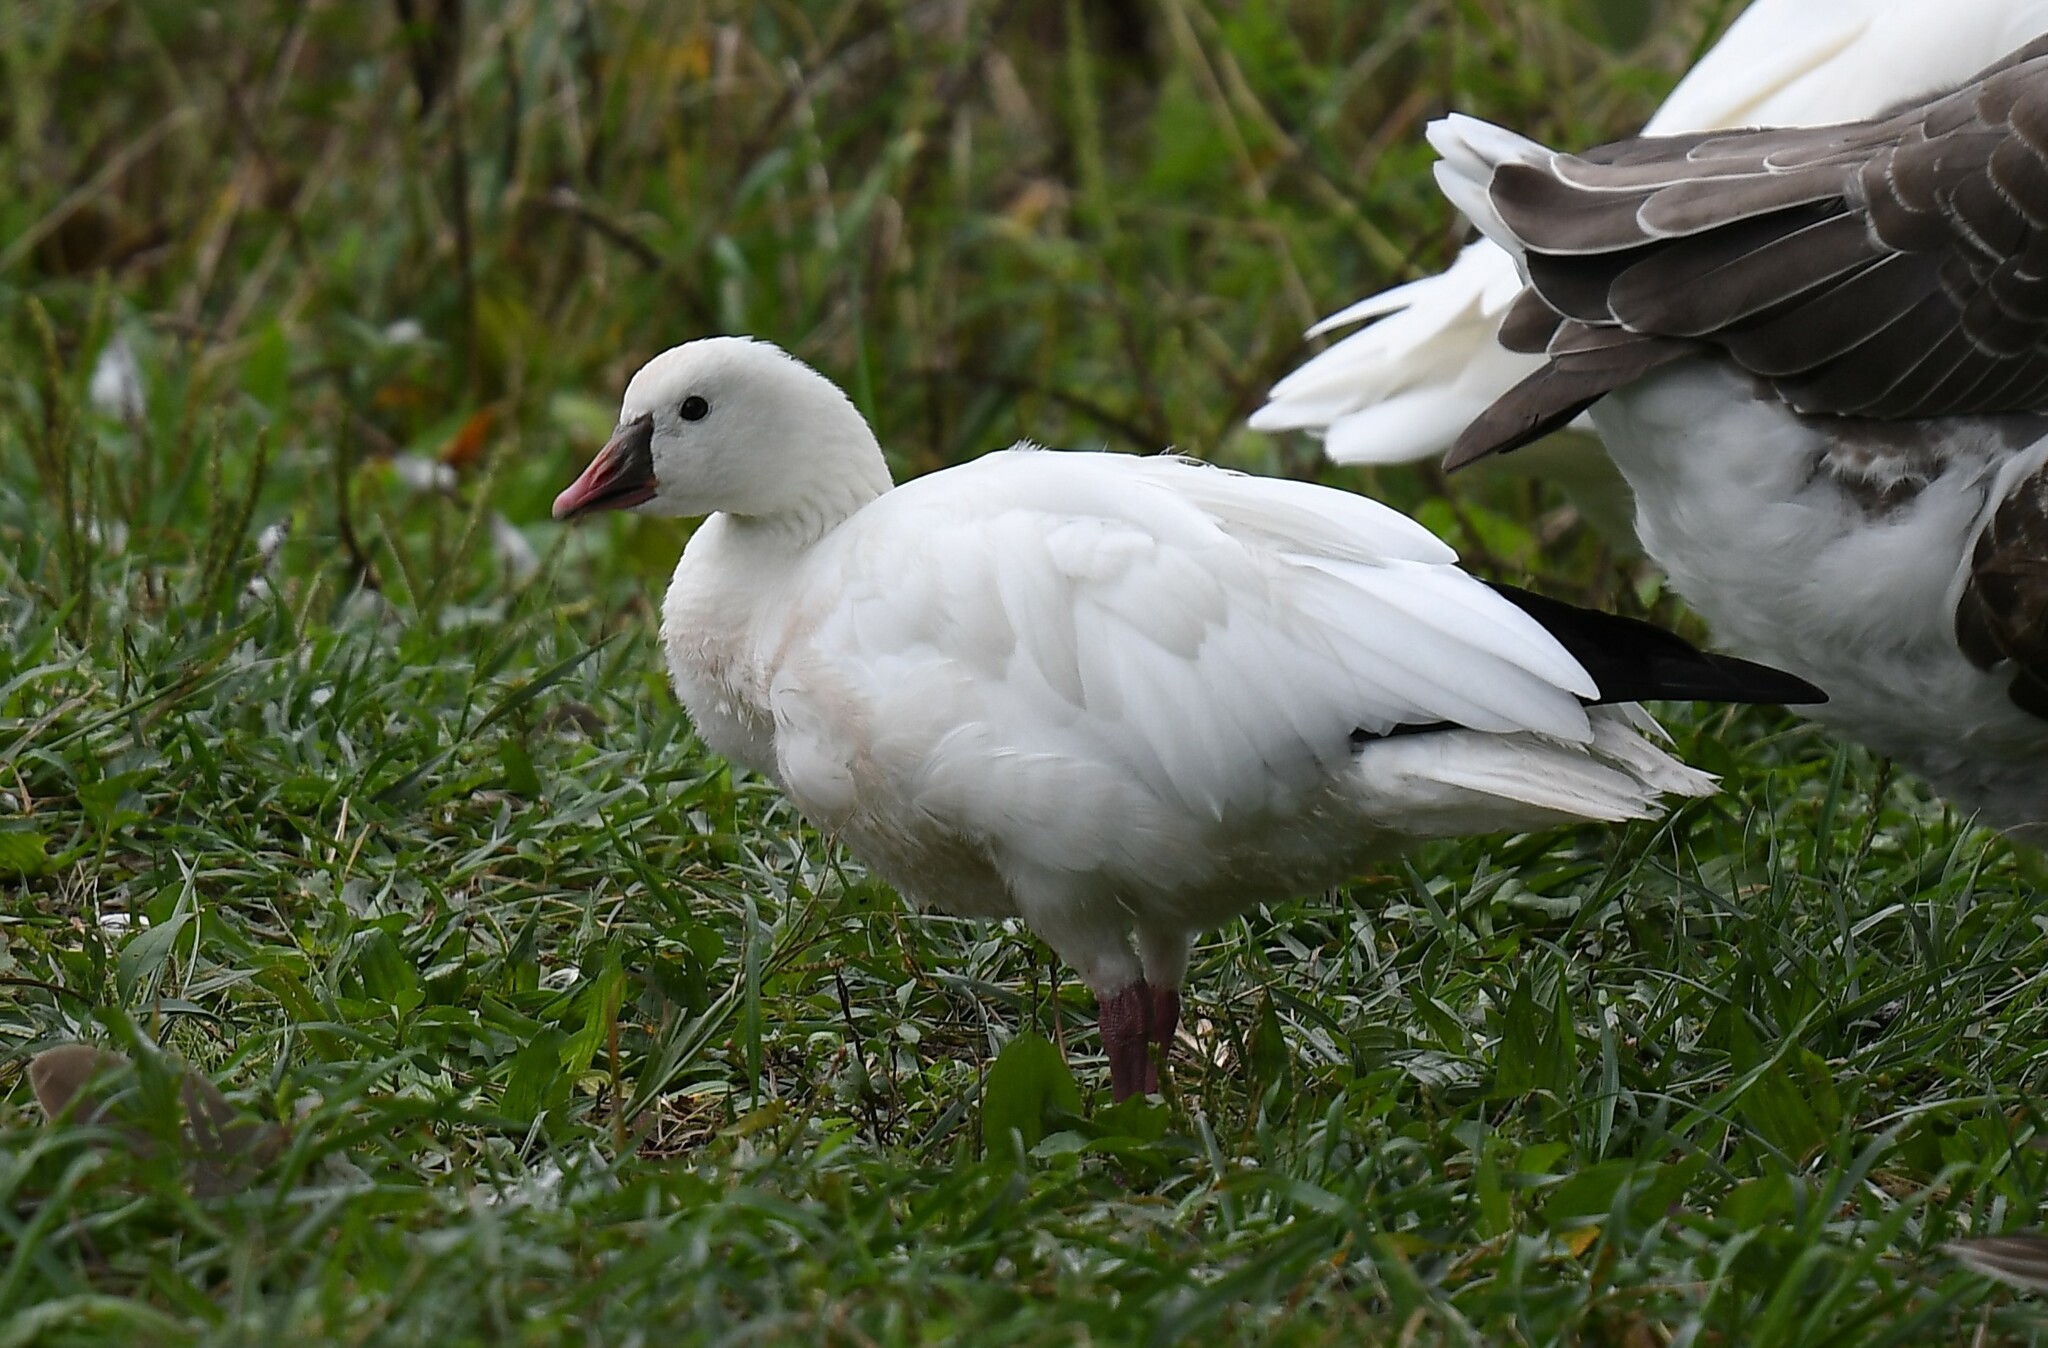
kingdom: Animalia
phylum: Chordata
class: Aves
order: Anseriformes
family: Anatidae
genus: Anser
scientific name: Anser rossii
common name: Ross's goose
